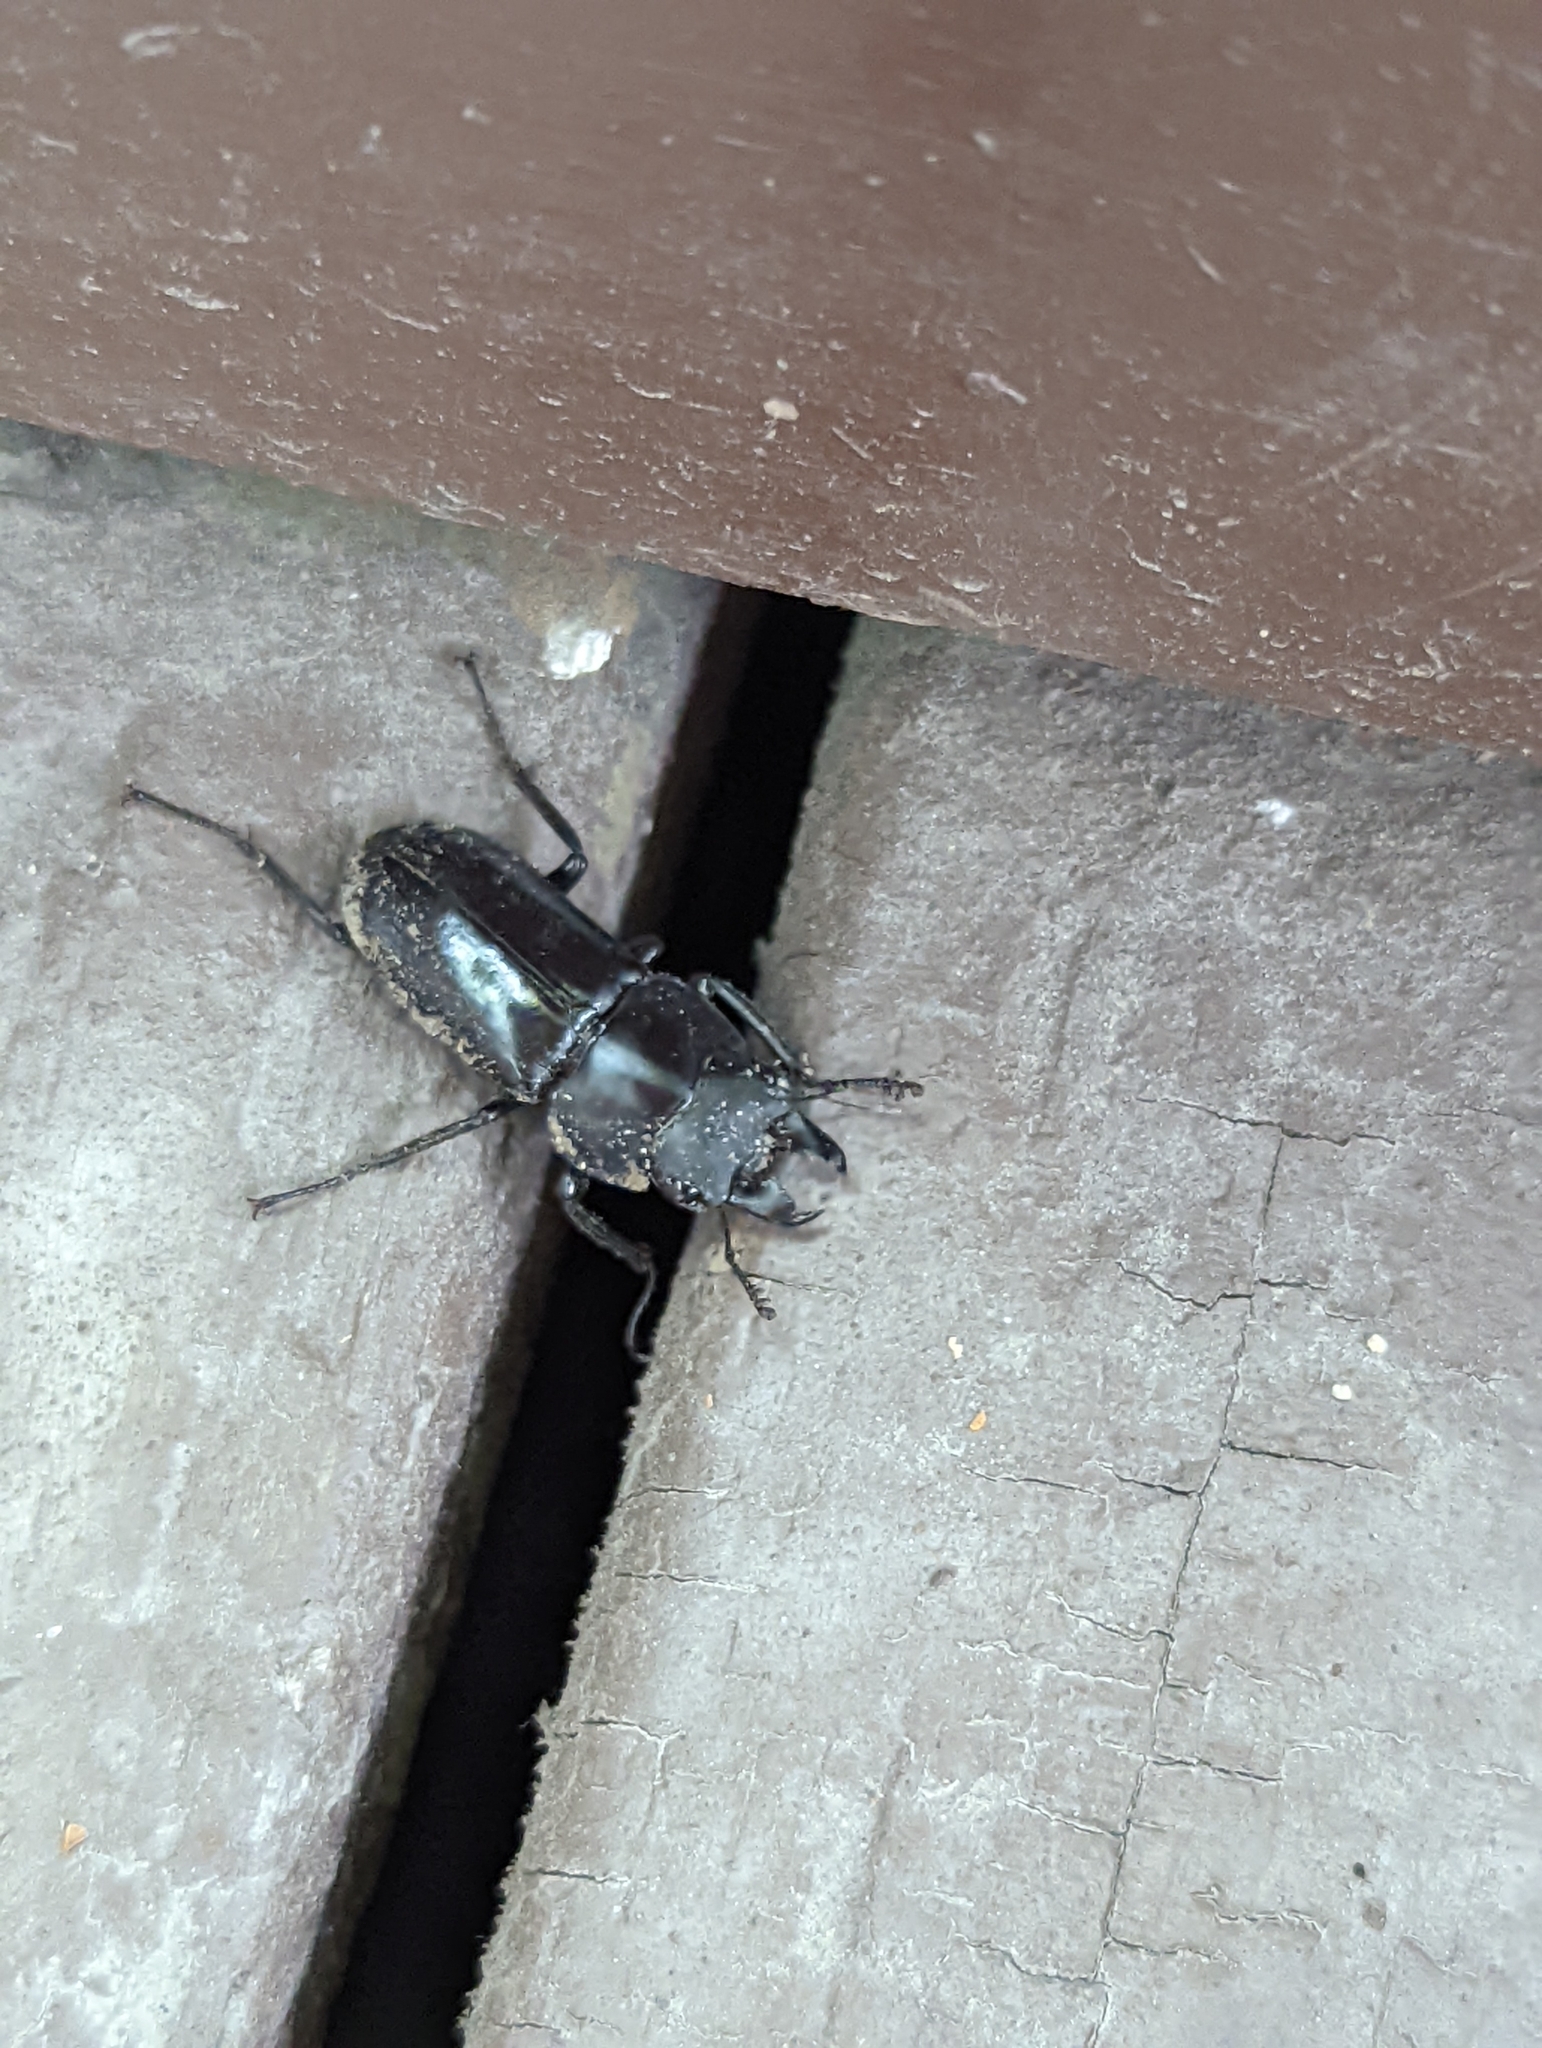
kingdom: Animalia
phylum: Arthropoda
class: Insecta
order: Coleoptera
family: Lucanidae
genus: Falcicornis
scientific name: Falcicornis tenuecostatus
